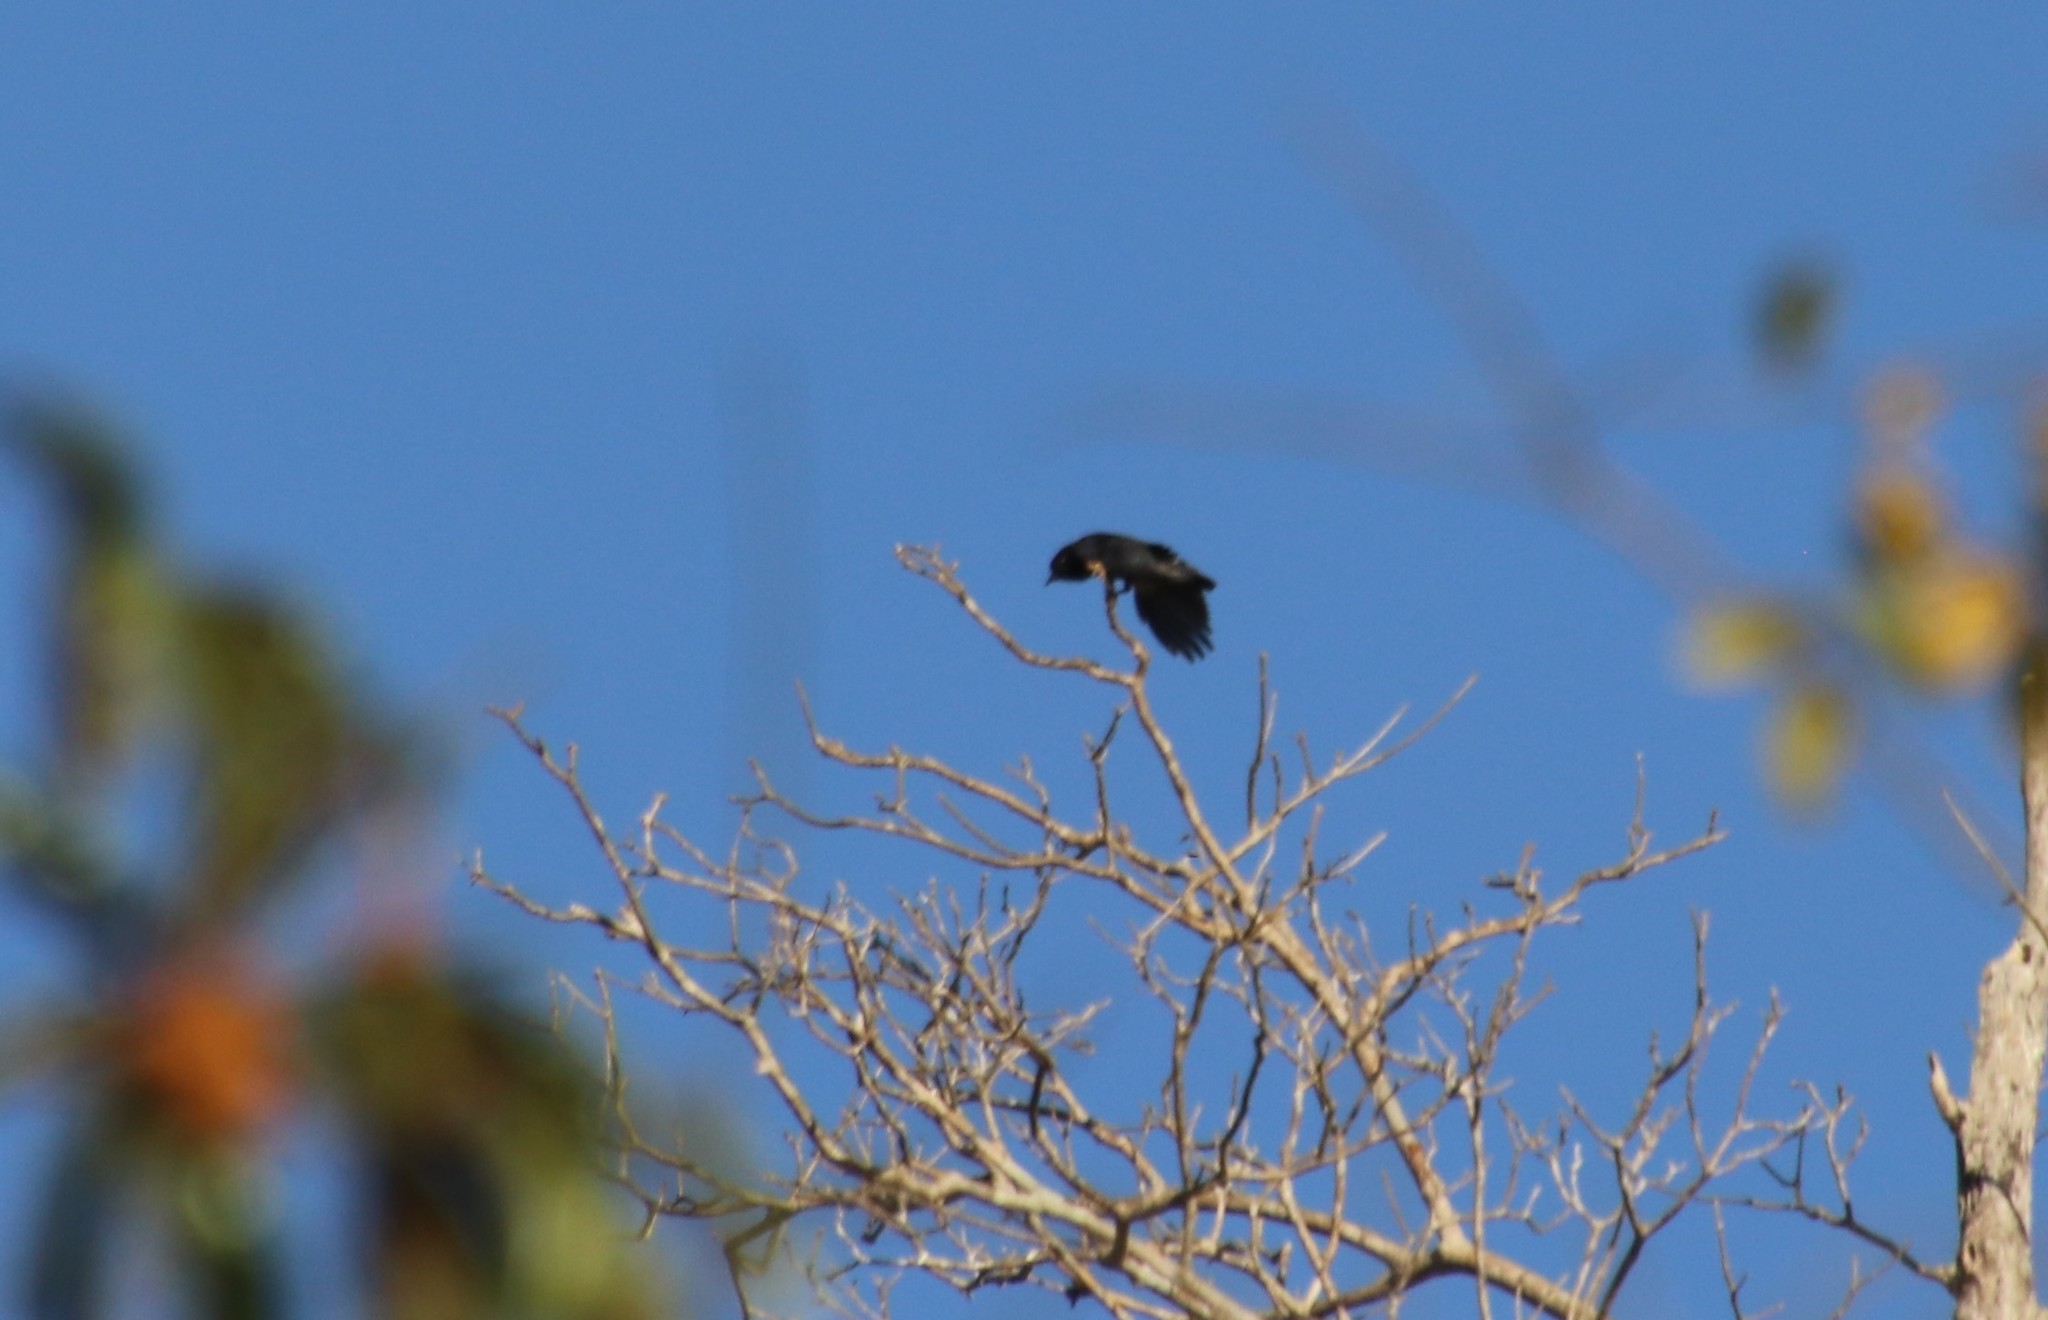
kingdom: Animalia
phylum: Chordata
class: Aves
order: Piciformes
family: Bucconidae
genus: Chelidoptera
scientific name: Chelidoptera tenebrosa
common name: Swallow-winged puffbird
